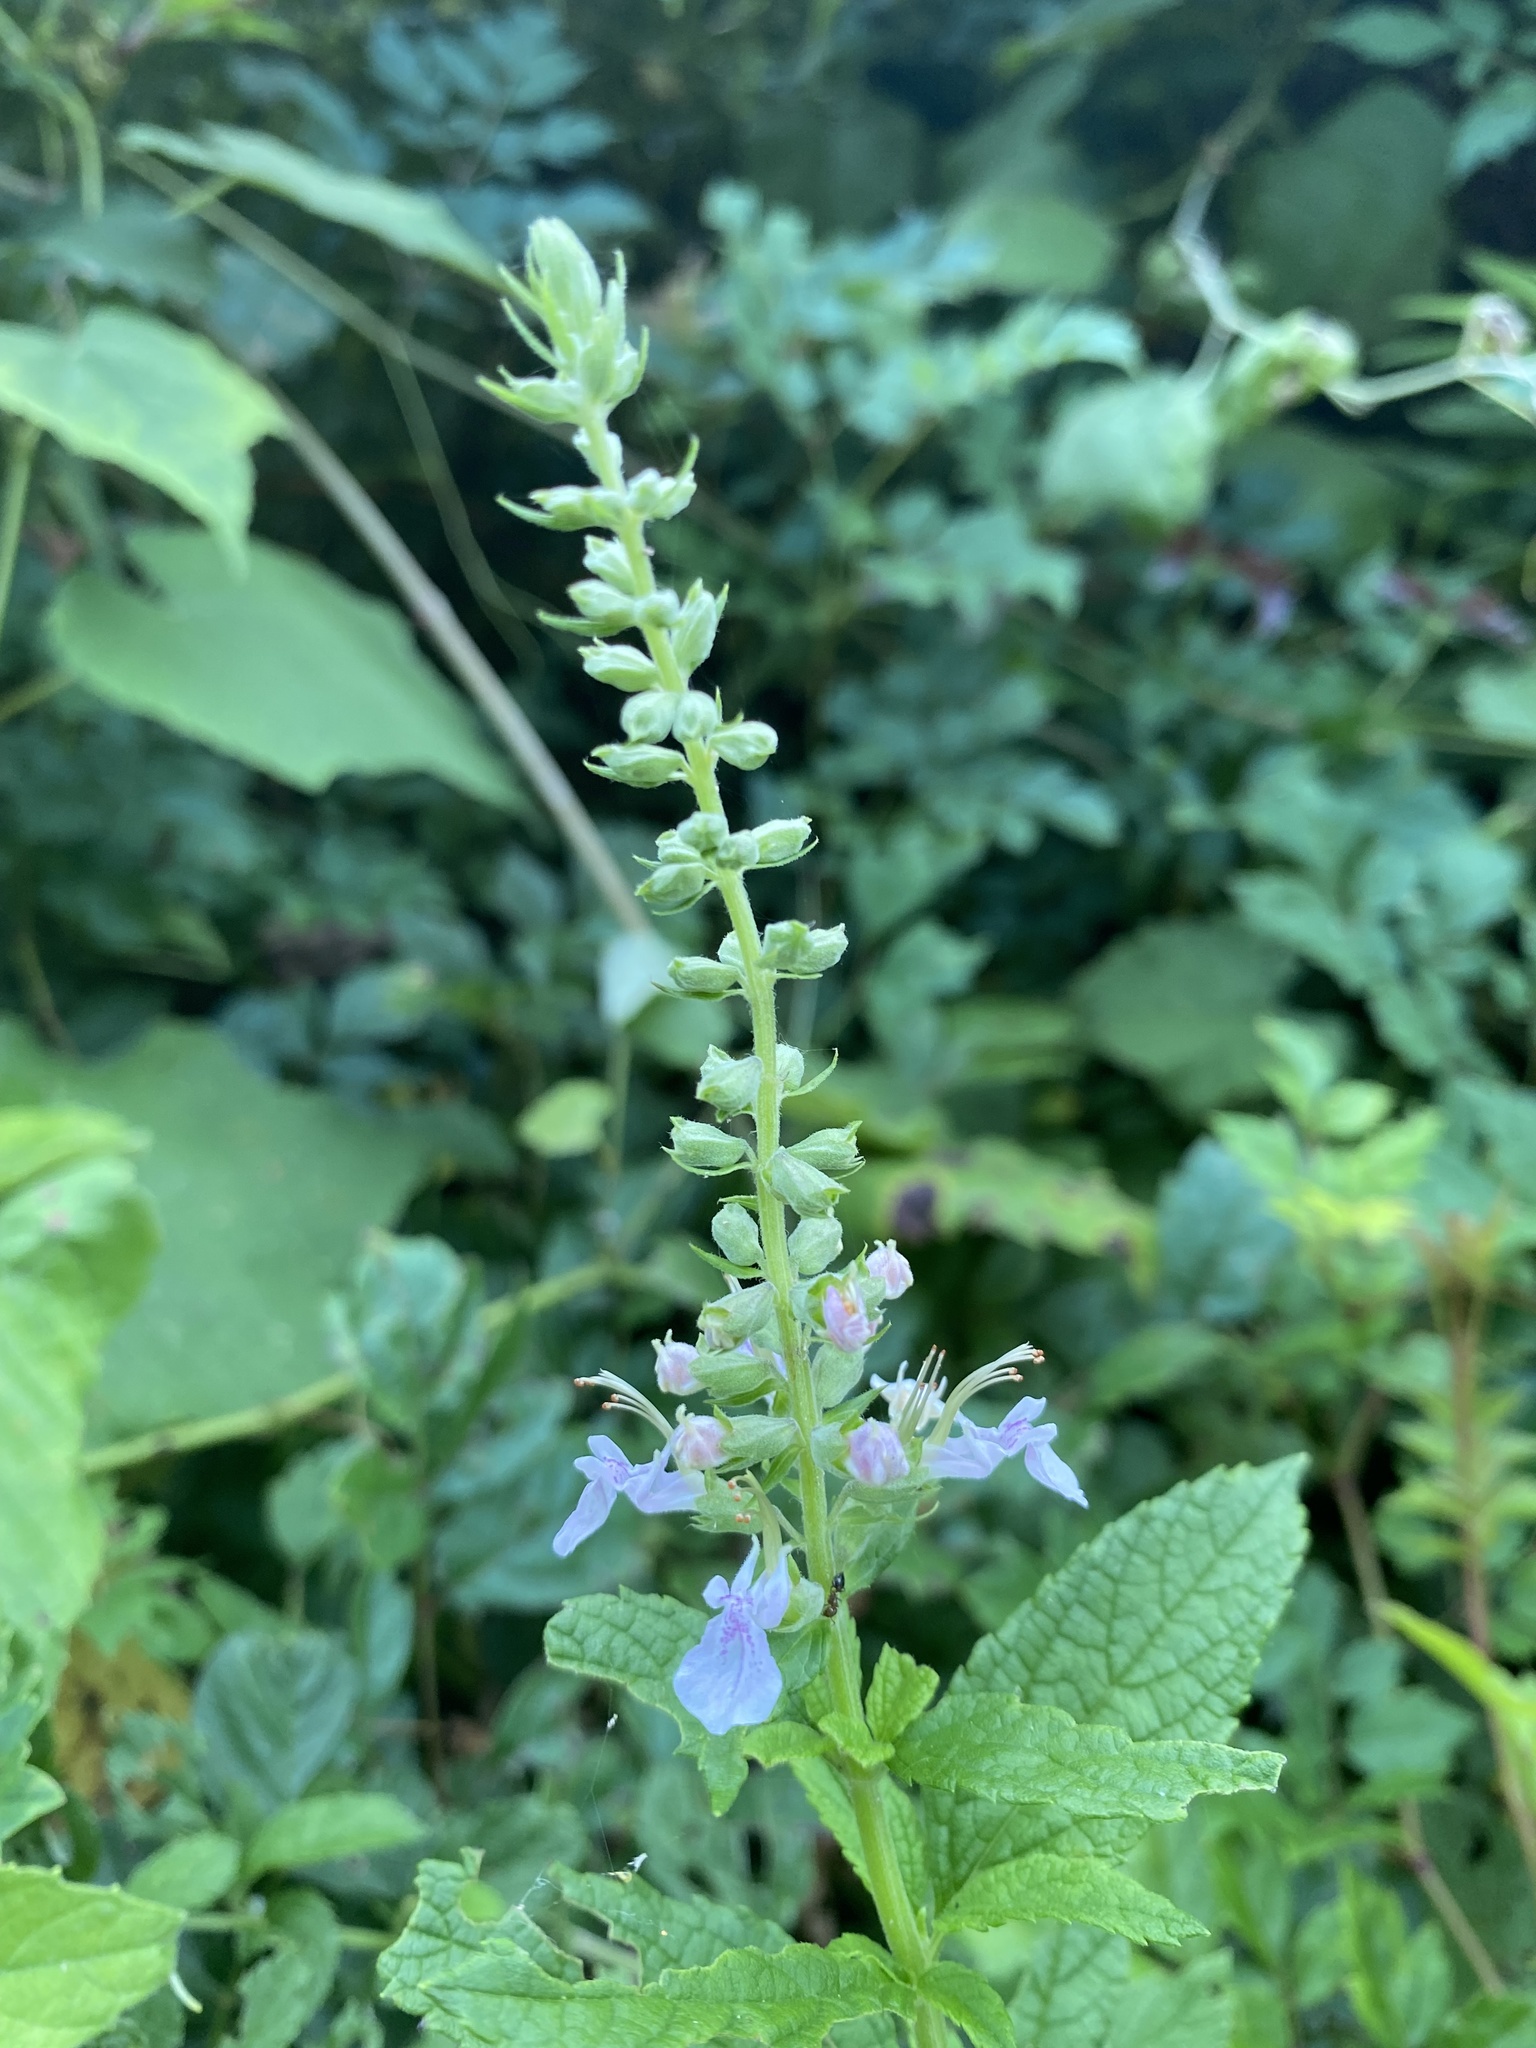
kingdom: Plantae
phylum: Tracheophyta
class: Magnoliopsida
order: Lamiales
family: Lamiaceae
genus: Teucrium
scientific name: Teucrium canadense
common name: American germander
